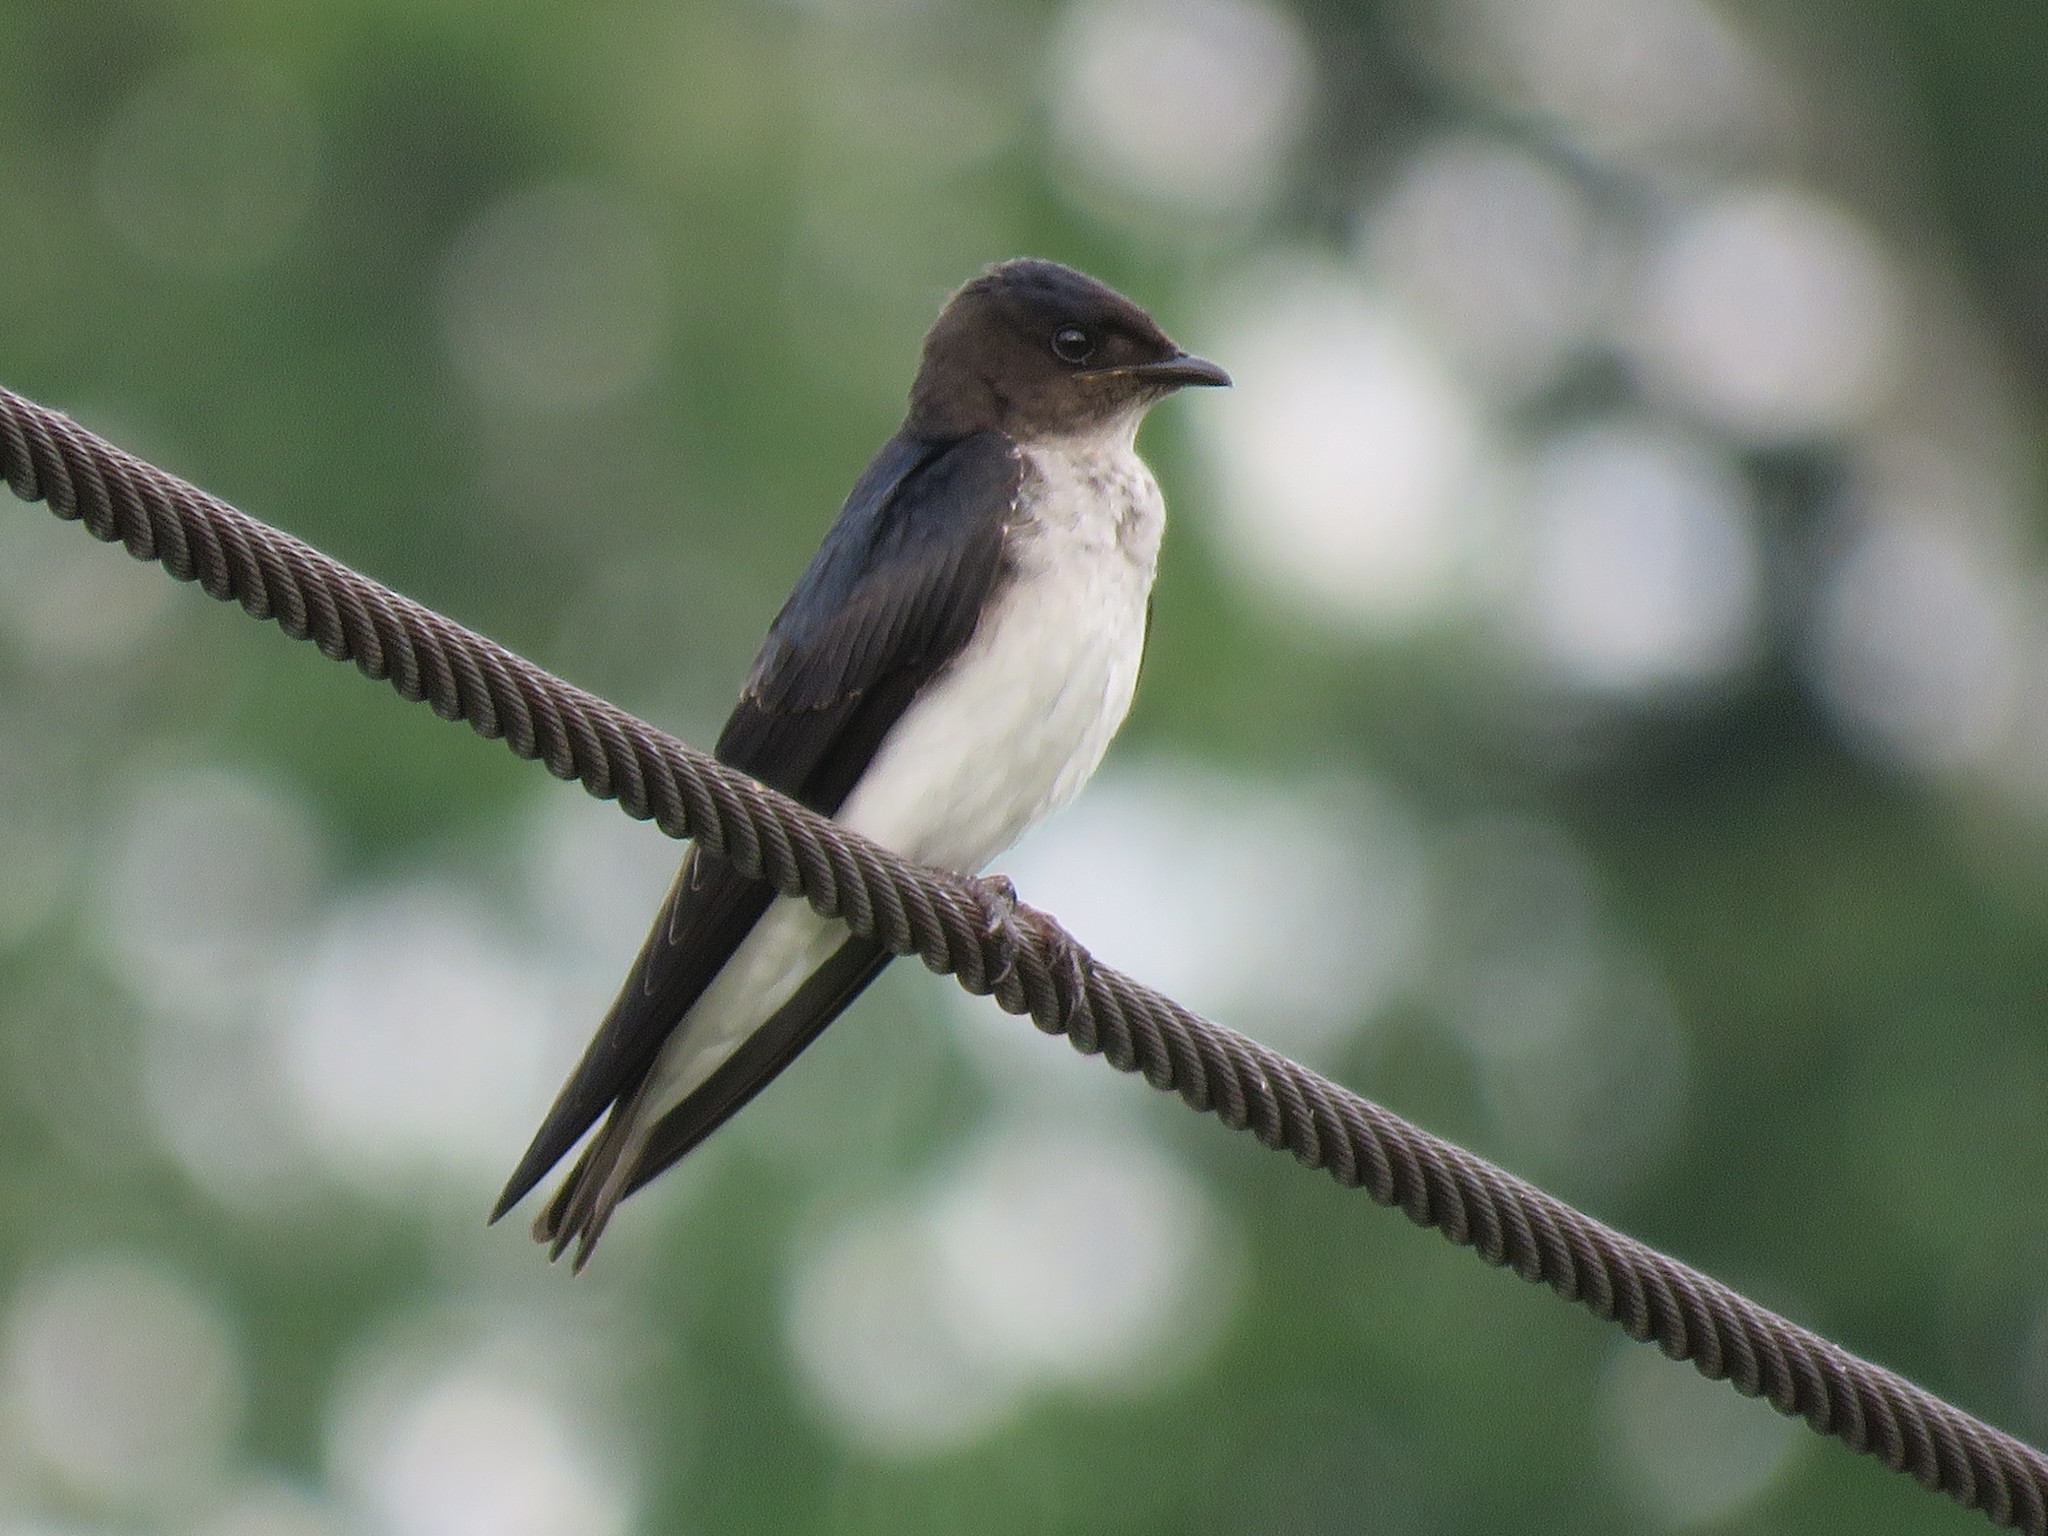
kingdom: Animalia
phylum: Chordata
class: Aves
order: Passeriformes
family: Hirundinidae
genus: Progne
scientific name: Progne chalybea
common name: Grey-breasted martin
